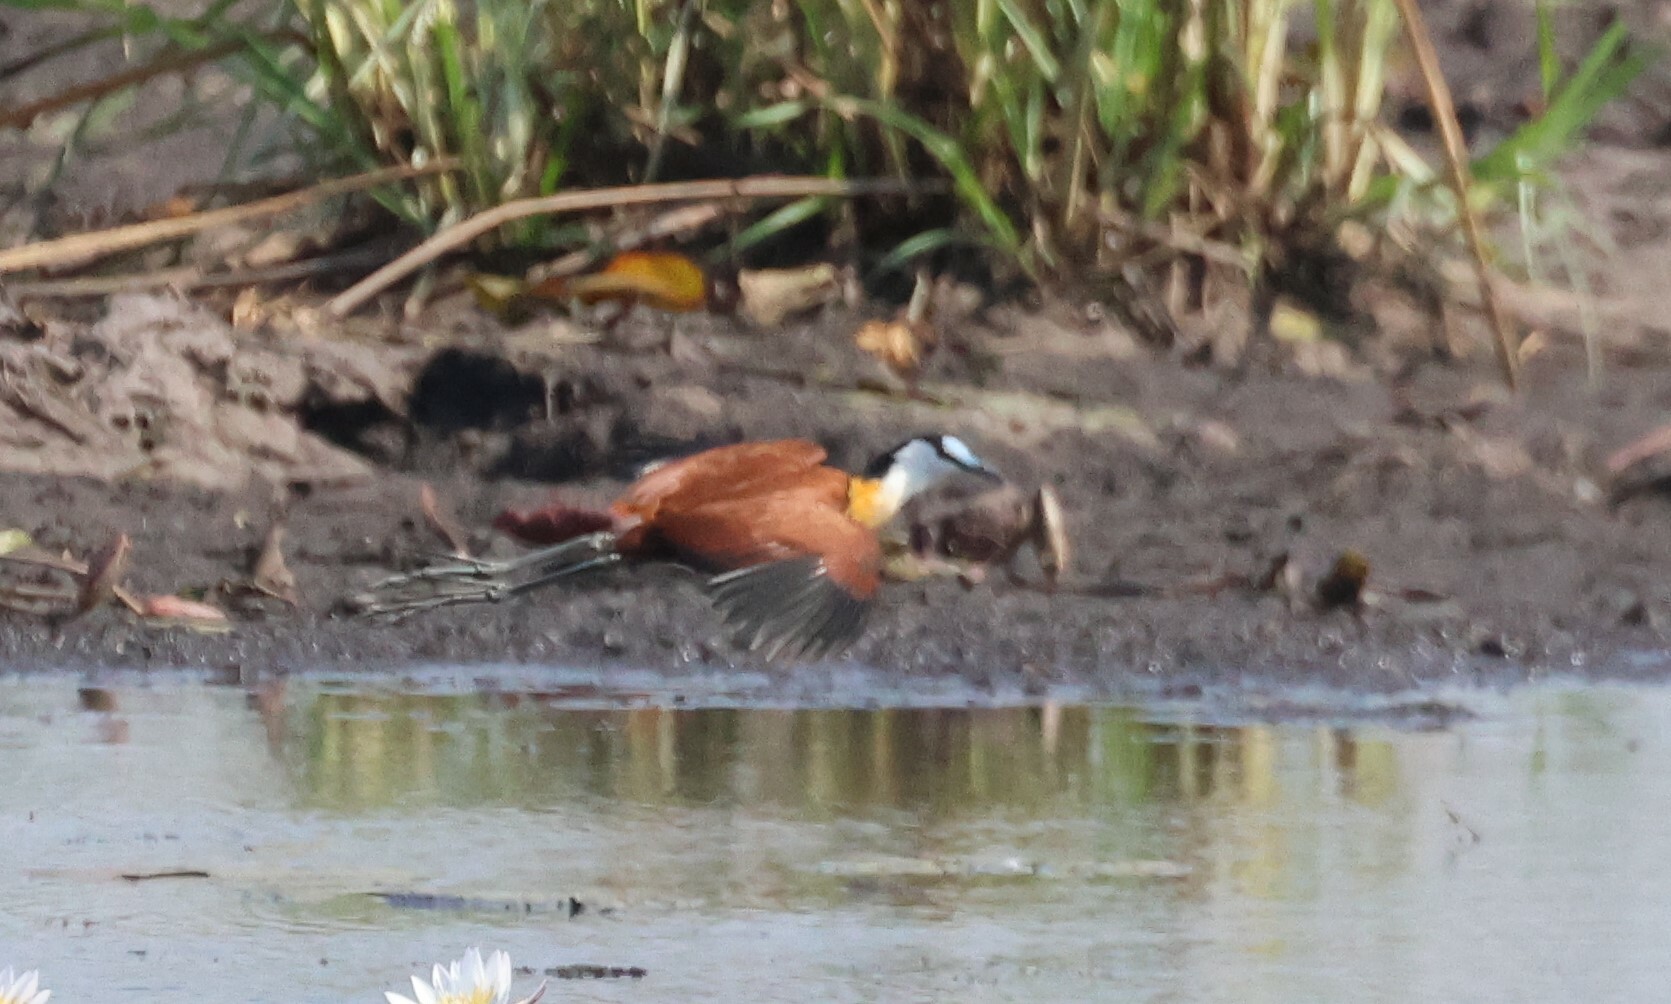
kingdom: Animalia
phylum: Chordata
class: Aves
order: Charadriiformes
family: Jacanidae
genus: Actophilornis
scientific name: Actophilornis africanus
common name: African jacana
